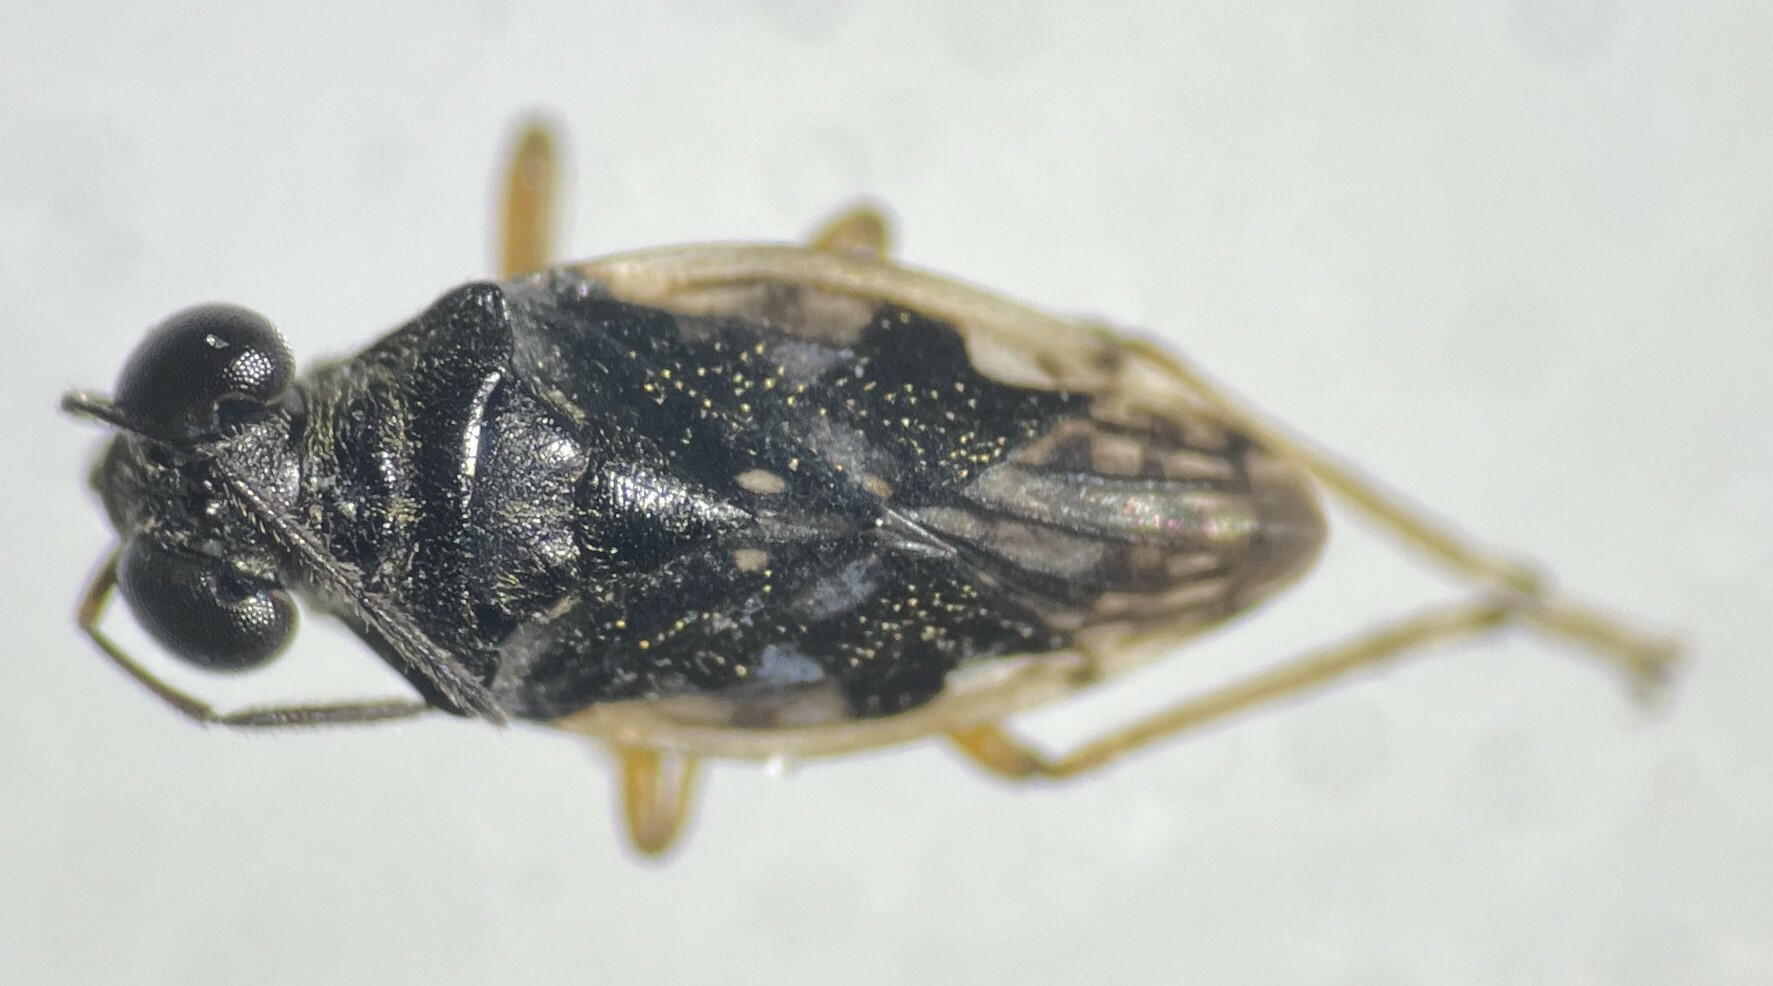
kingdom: Animalia
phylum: Arthropoda
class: Insecta
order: Hemiptera
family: Saldidae
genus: Micracanthia
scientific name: Micracanthia husseyi
